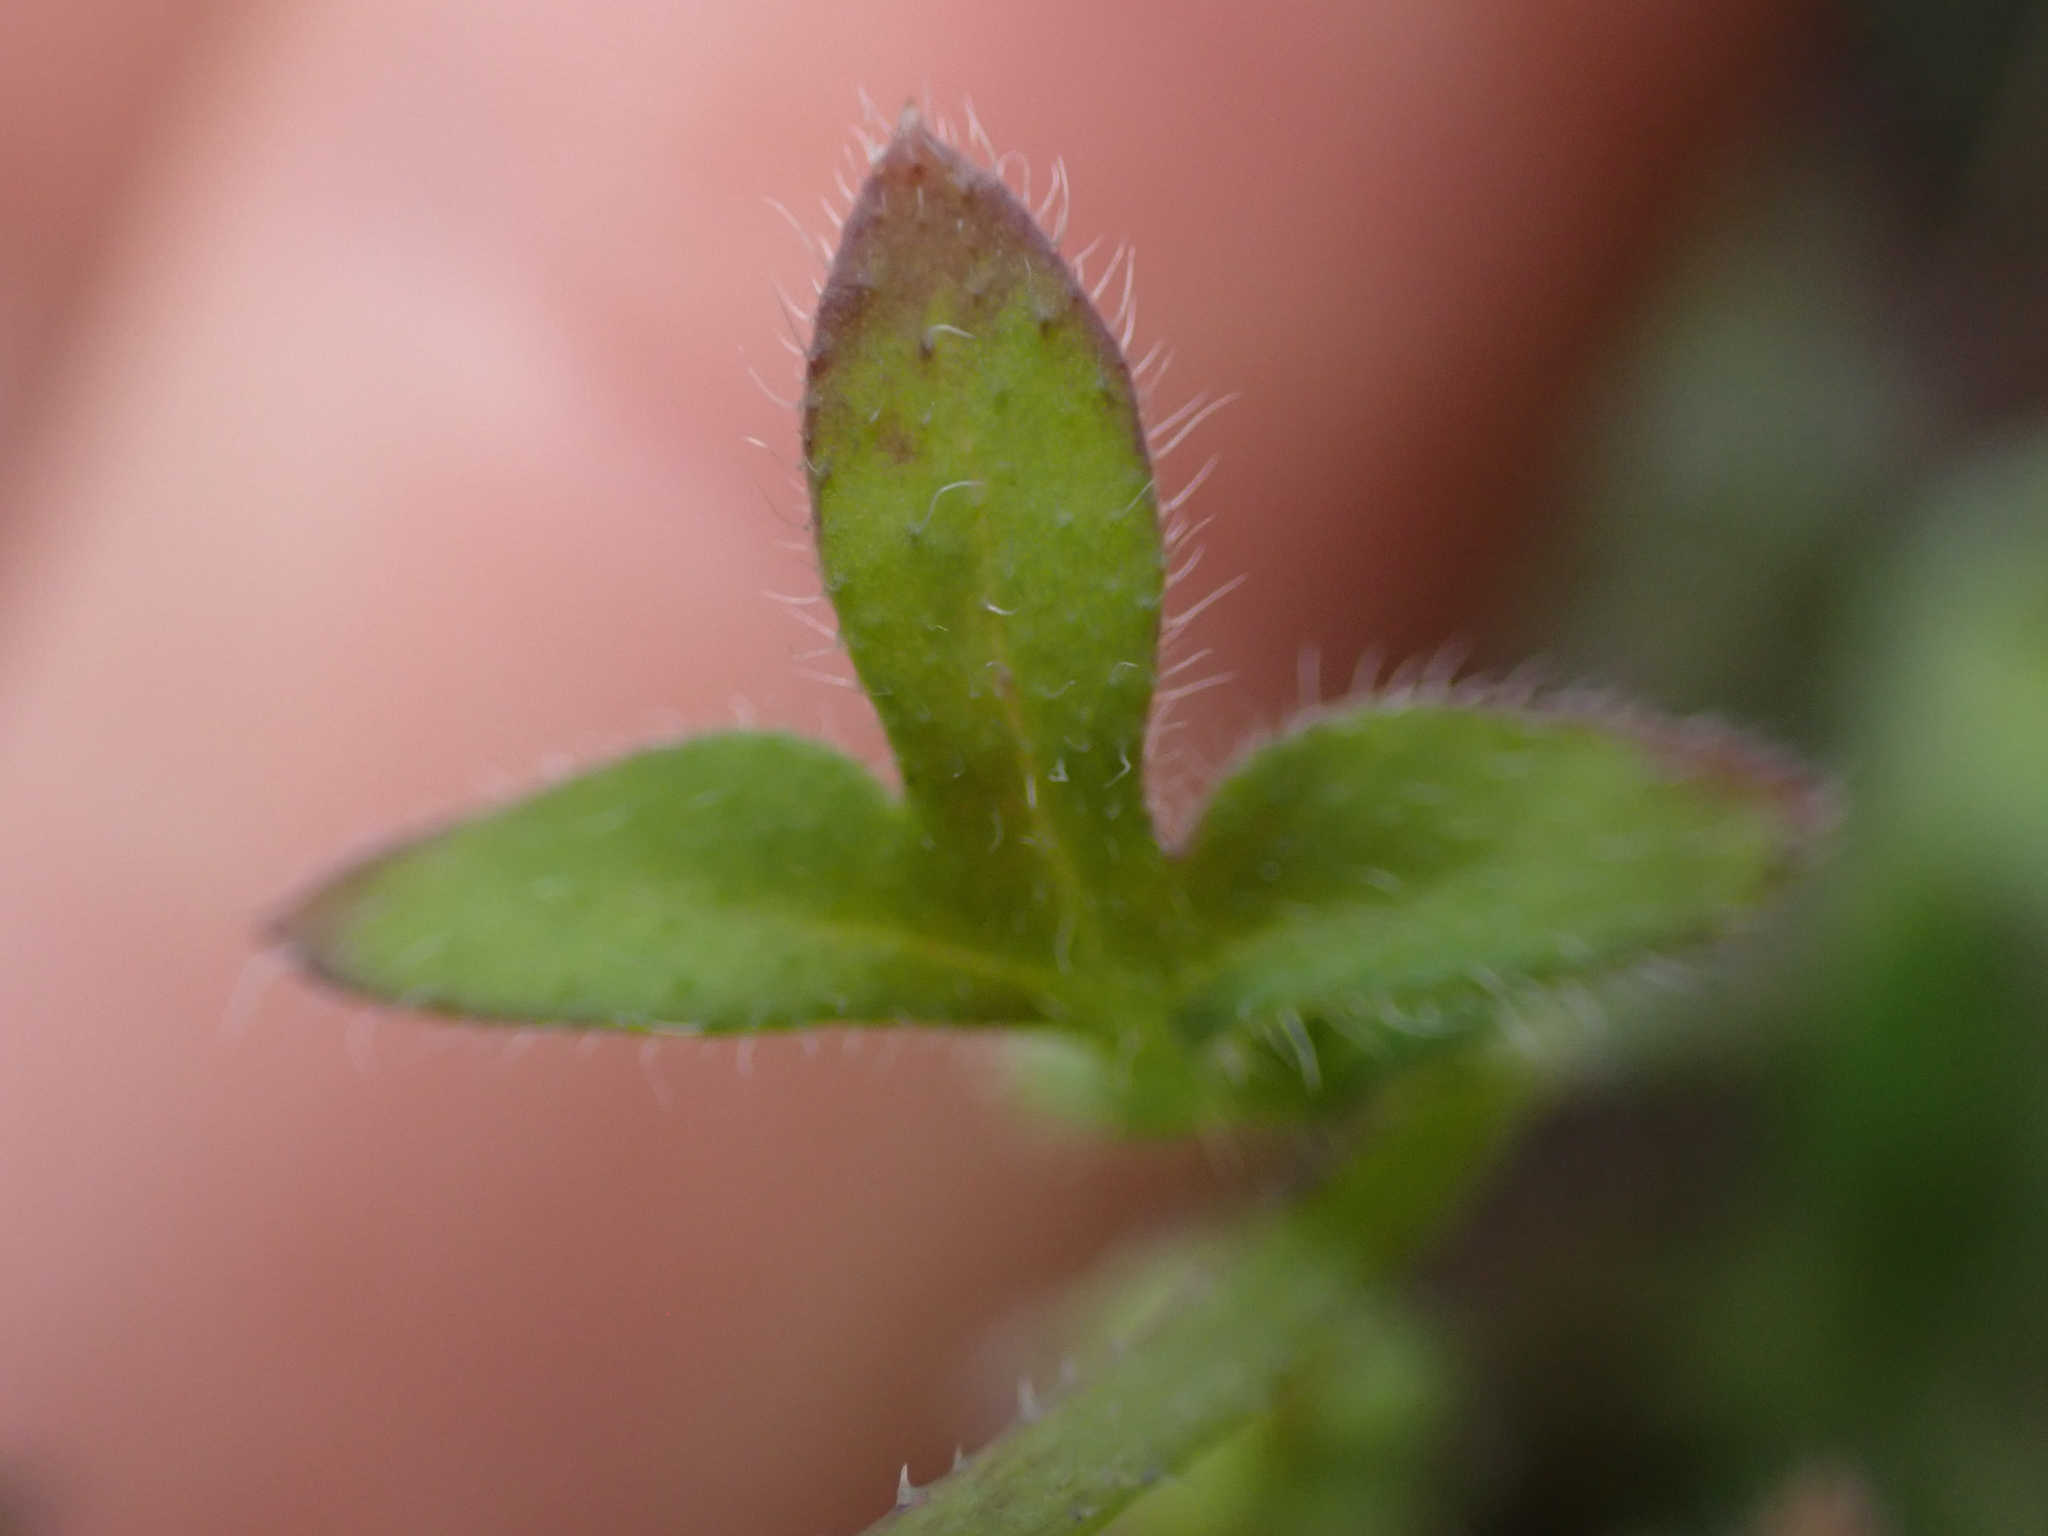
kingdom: Plantae
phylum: Tracheophyta
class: Magnoliopsida
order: Boraginales
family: Hydrophyllaceae
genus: Nemophila
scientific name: Nemophila breviflora
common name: Great basin baby-blue-eyes
